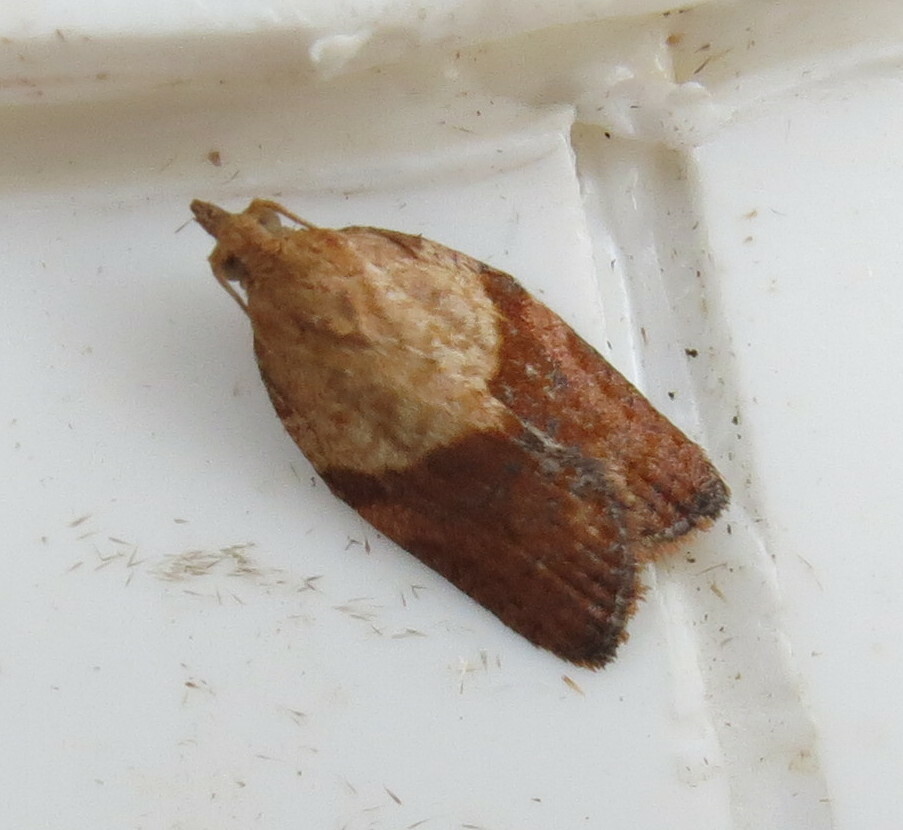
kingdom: Animalia
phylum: Arthropoda
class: Insecta
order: Lepidoptera
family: Tortricidae
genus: Epiphyas
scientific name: Epiphyas postvittana
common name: Light brown apple moth
